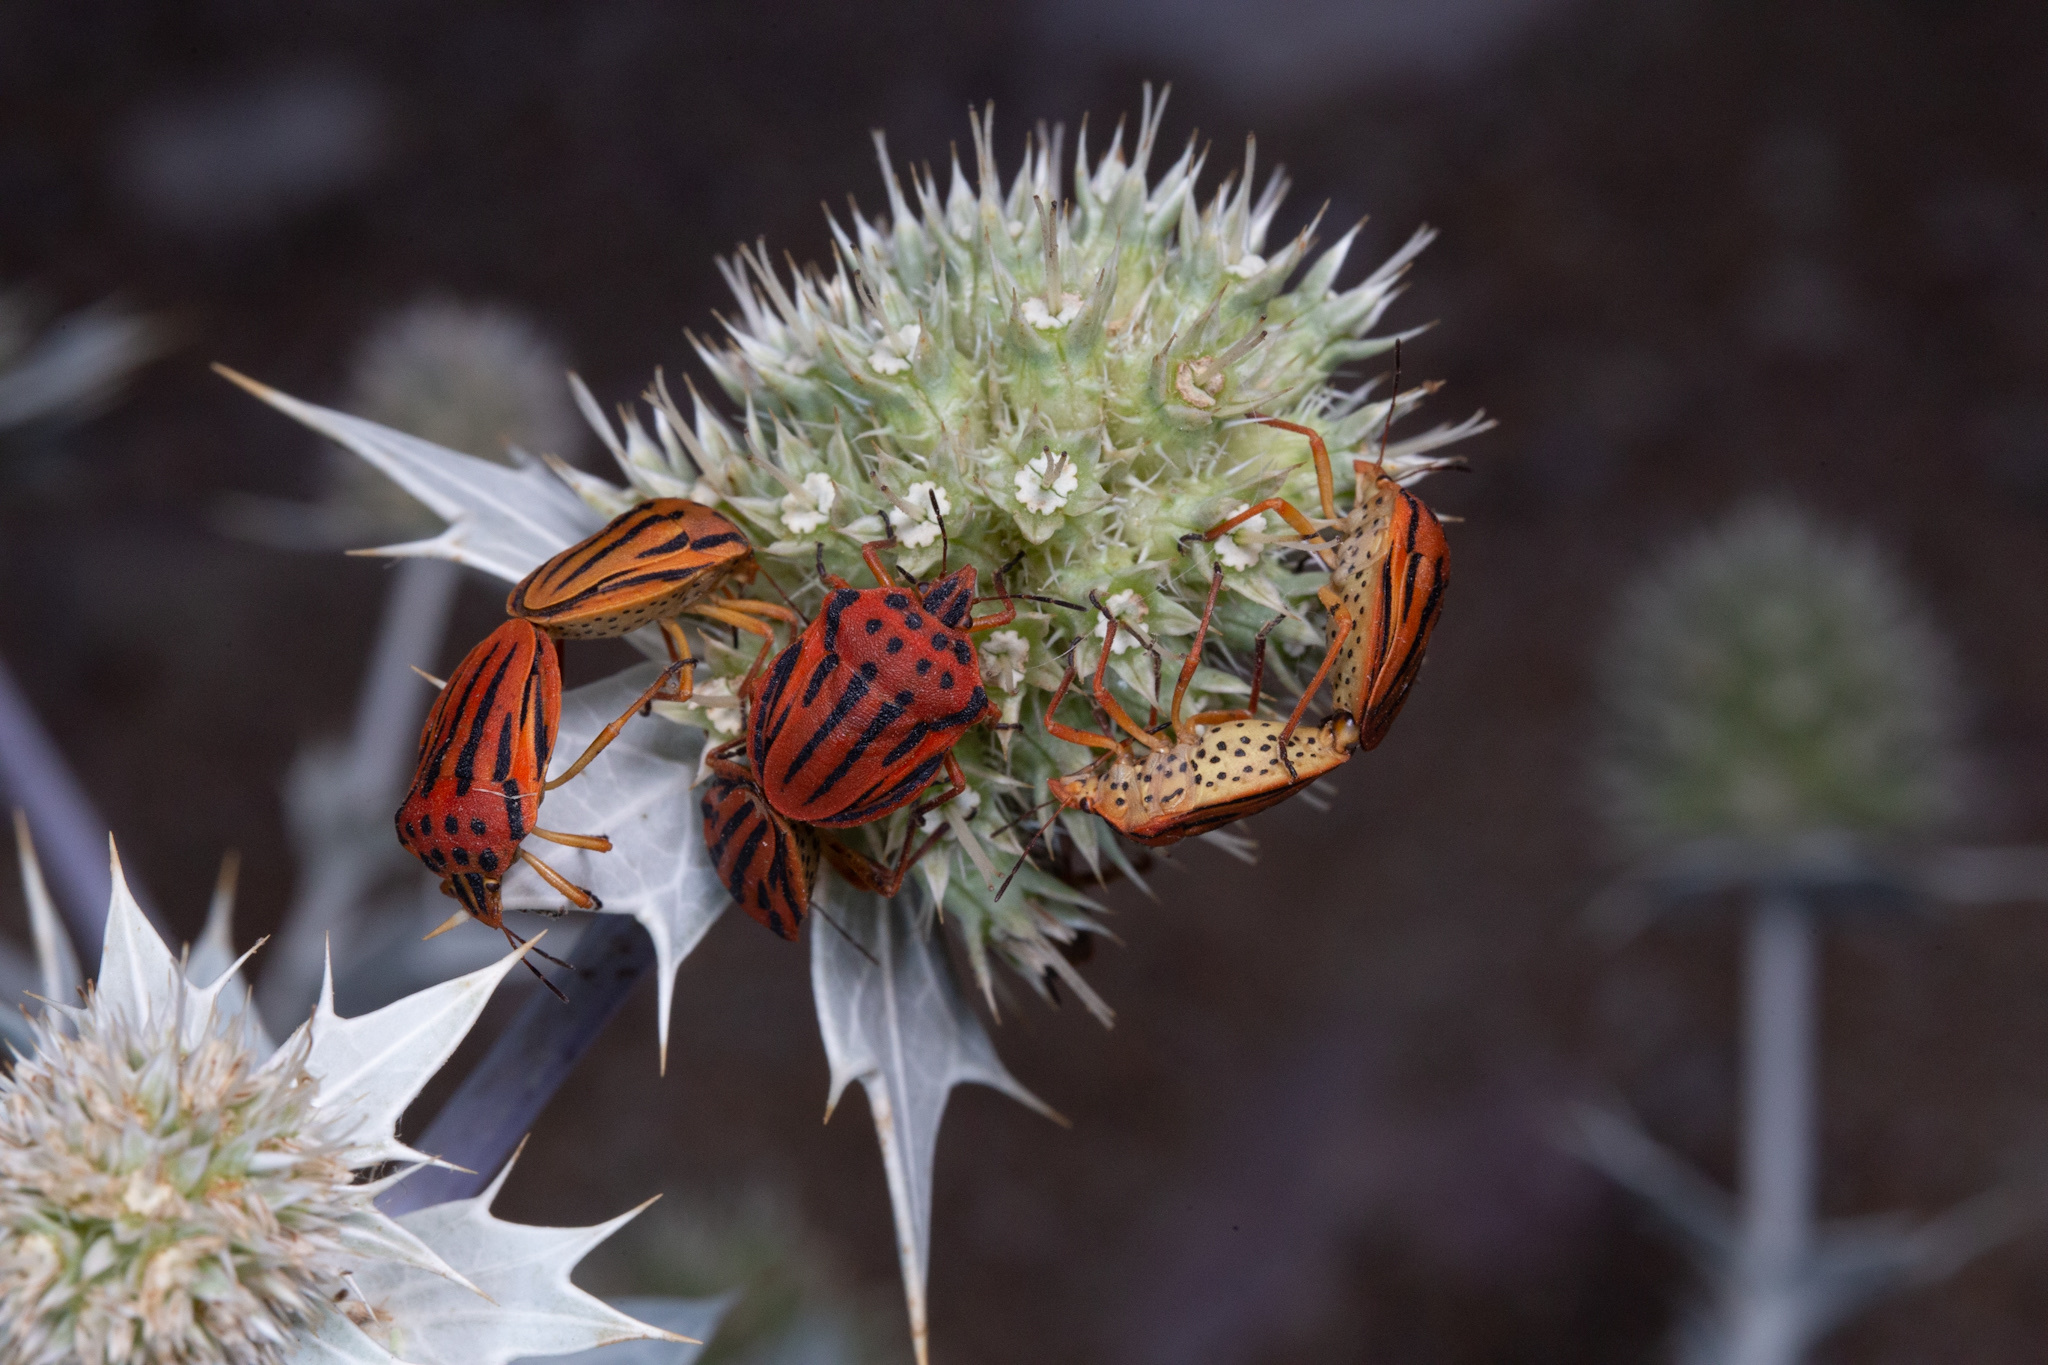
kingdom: Animalia
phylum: Arthropoda
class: Insecta
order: Hemiptera
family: Pentatomidae
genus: Graphosoma
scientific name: Graphosoma semipunctatum
